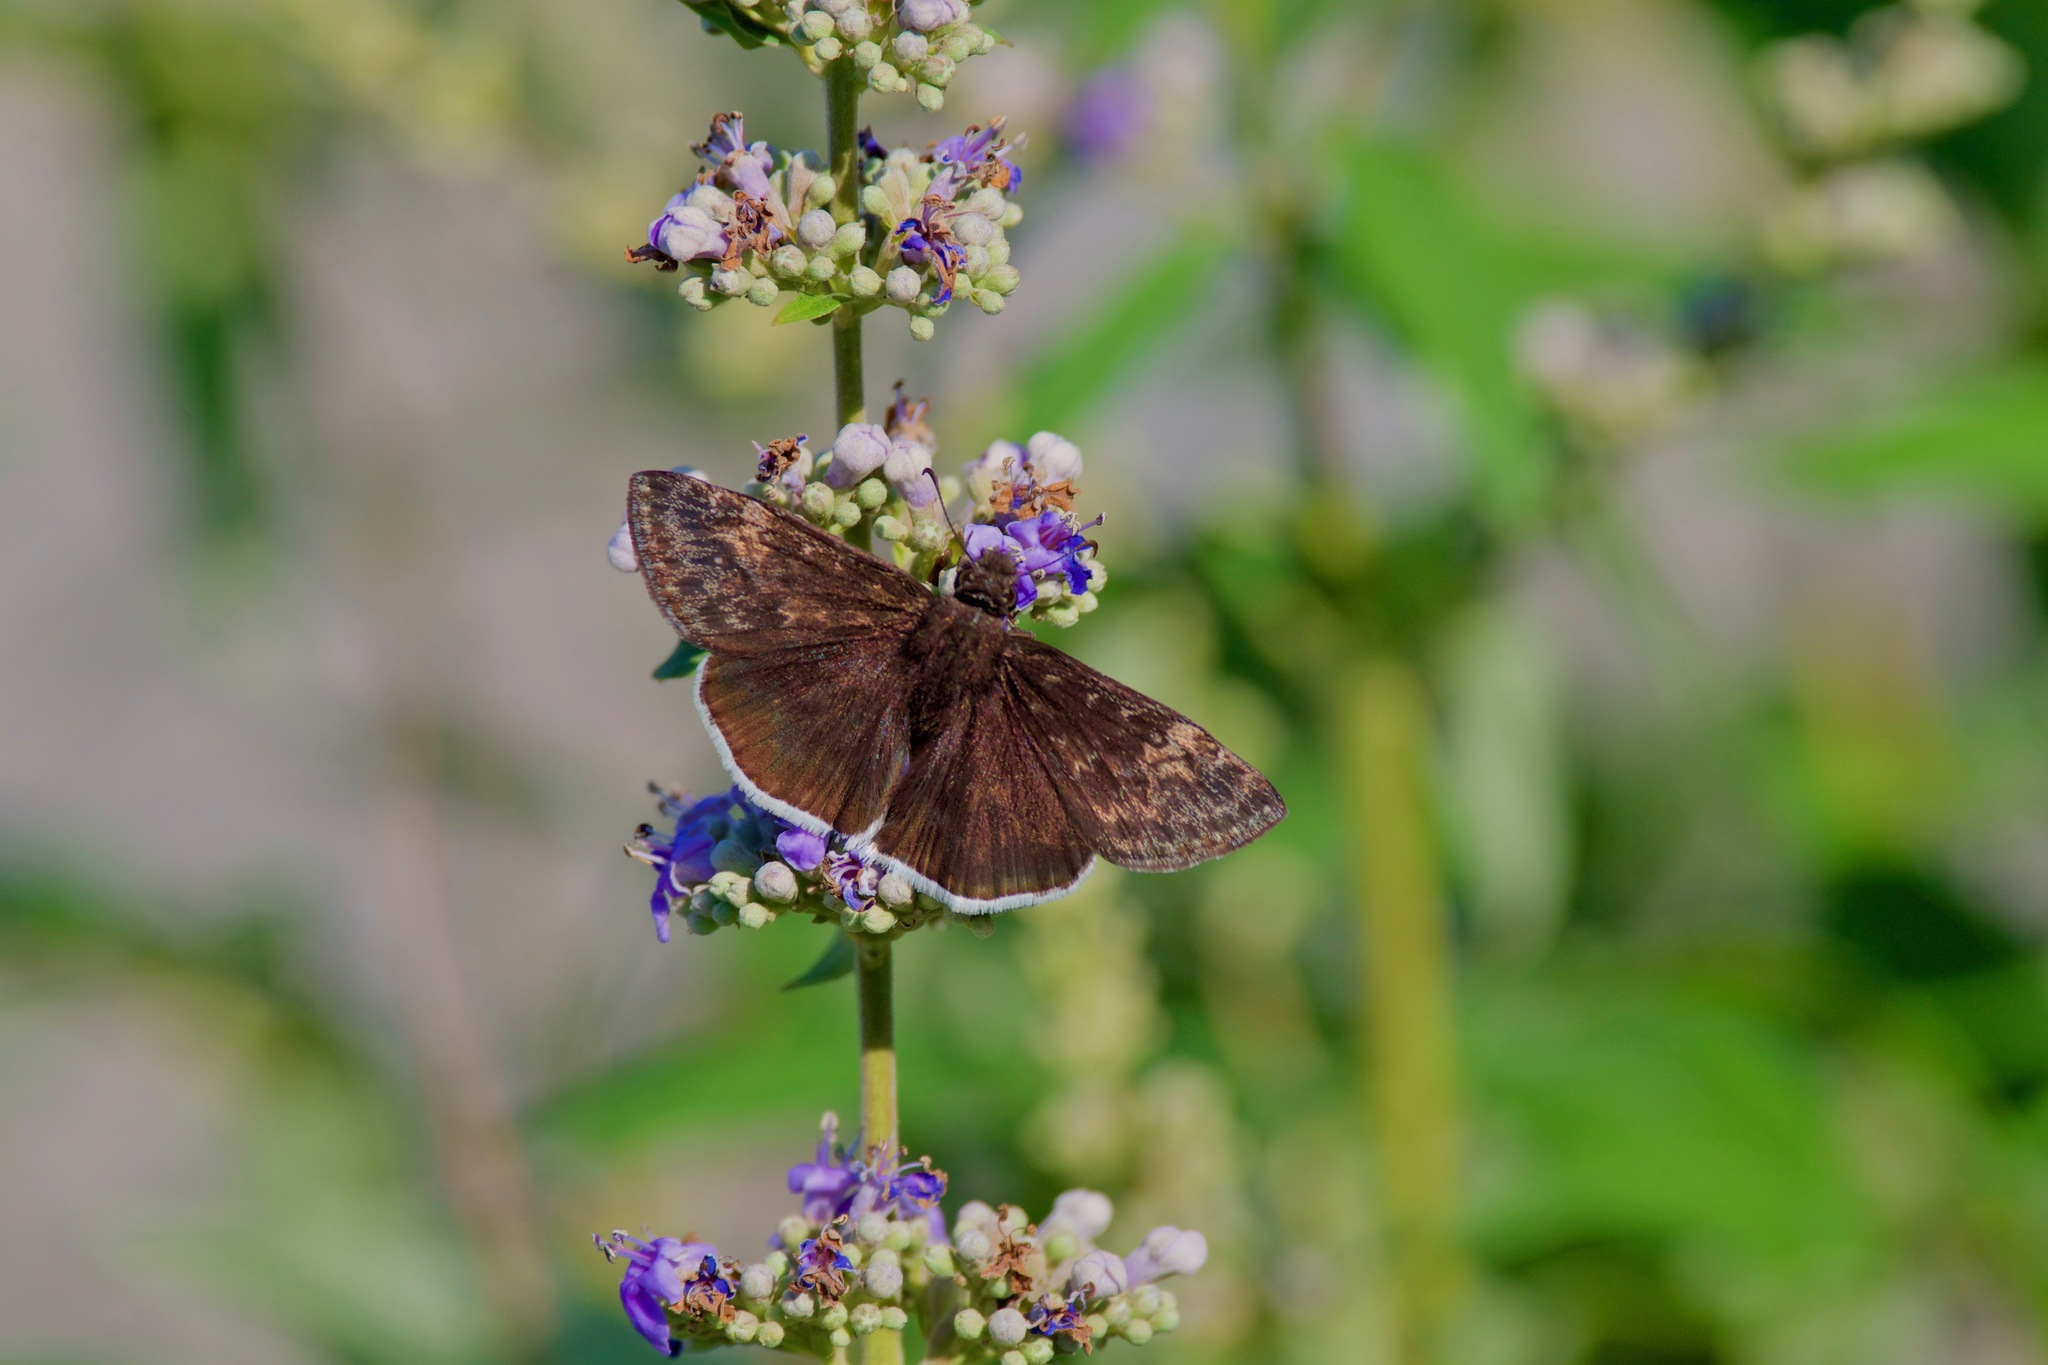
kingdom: Animalia
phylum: Arthropoda
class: Insecta
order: Lepidoptera
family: Hesperiidae
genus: Erynnis
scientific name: Erynnis funeralis
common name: Funereal duskywing
